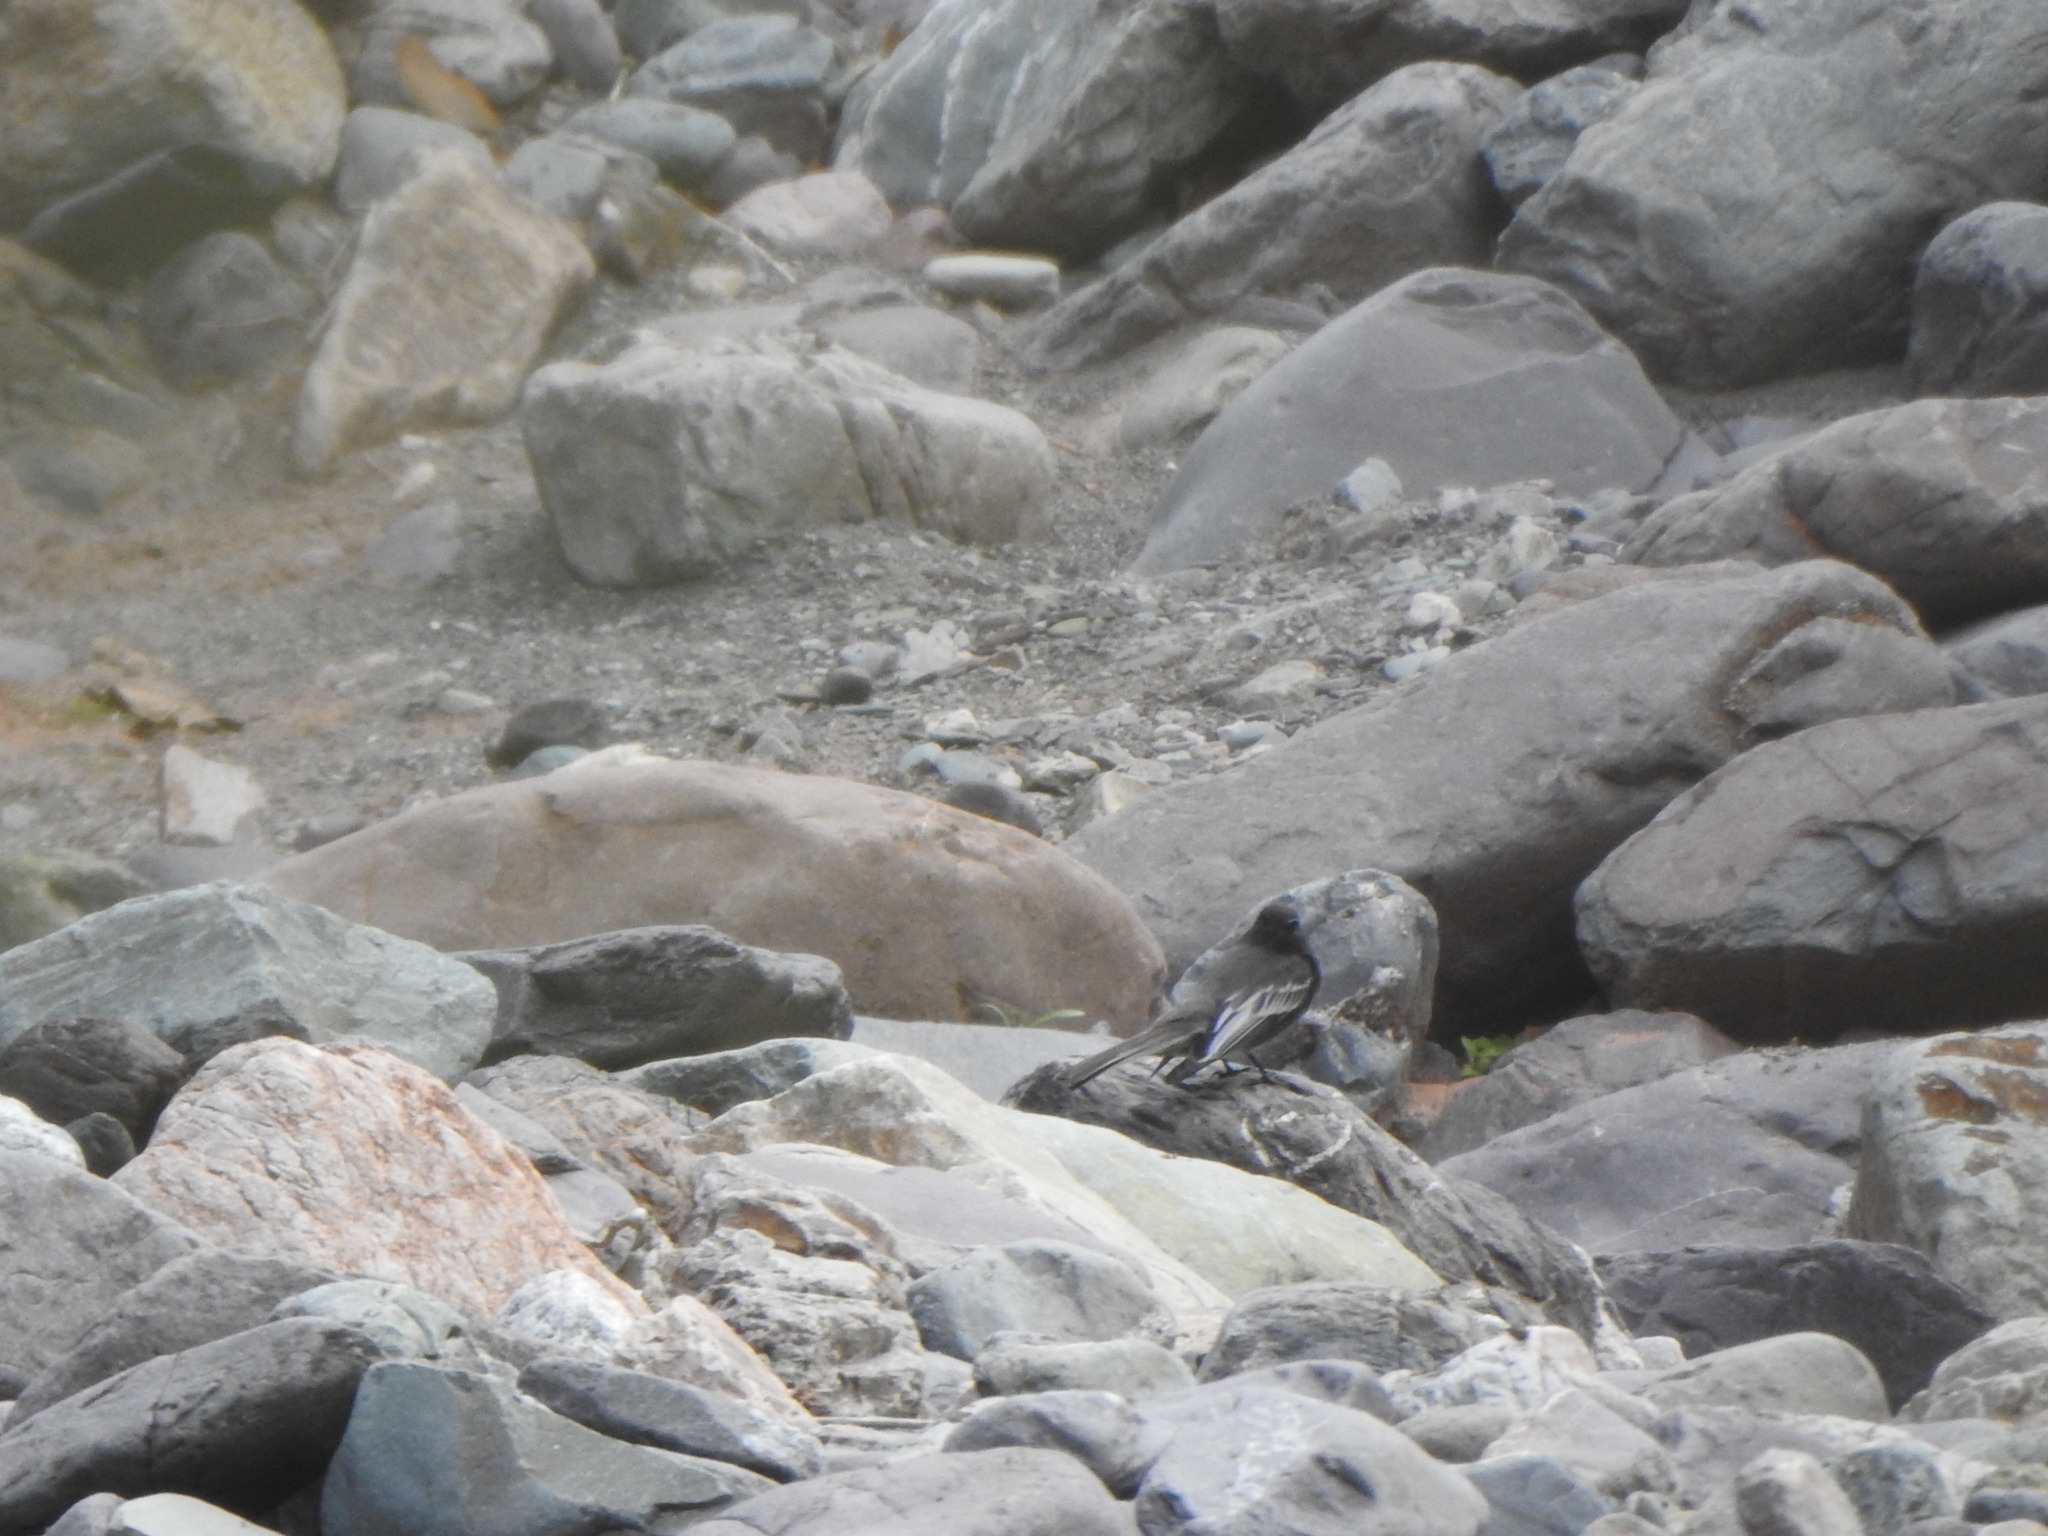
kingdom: Animalia
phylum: Chordata
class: Aves
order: Passeriformes
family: Tyrannidae
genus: Sayornis
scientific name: Sayornis nigricans
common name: Black phoebe
